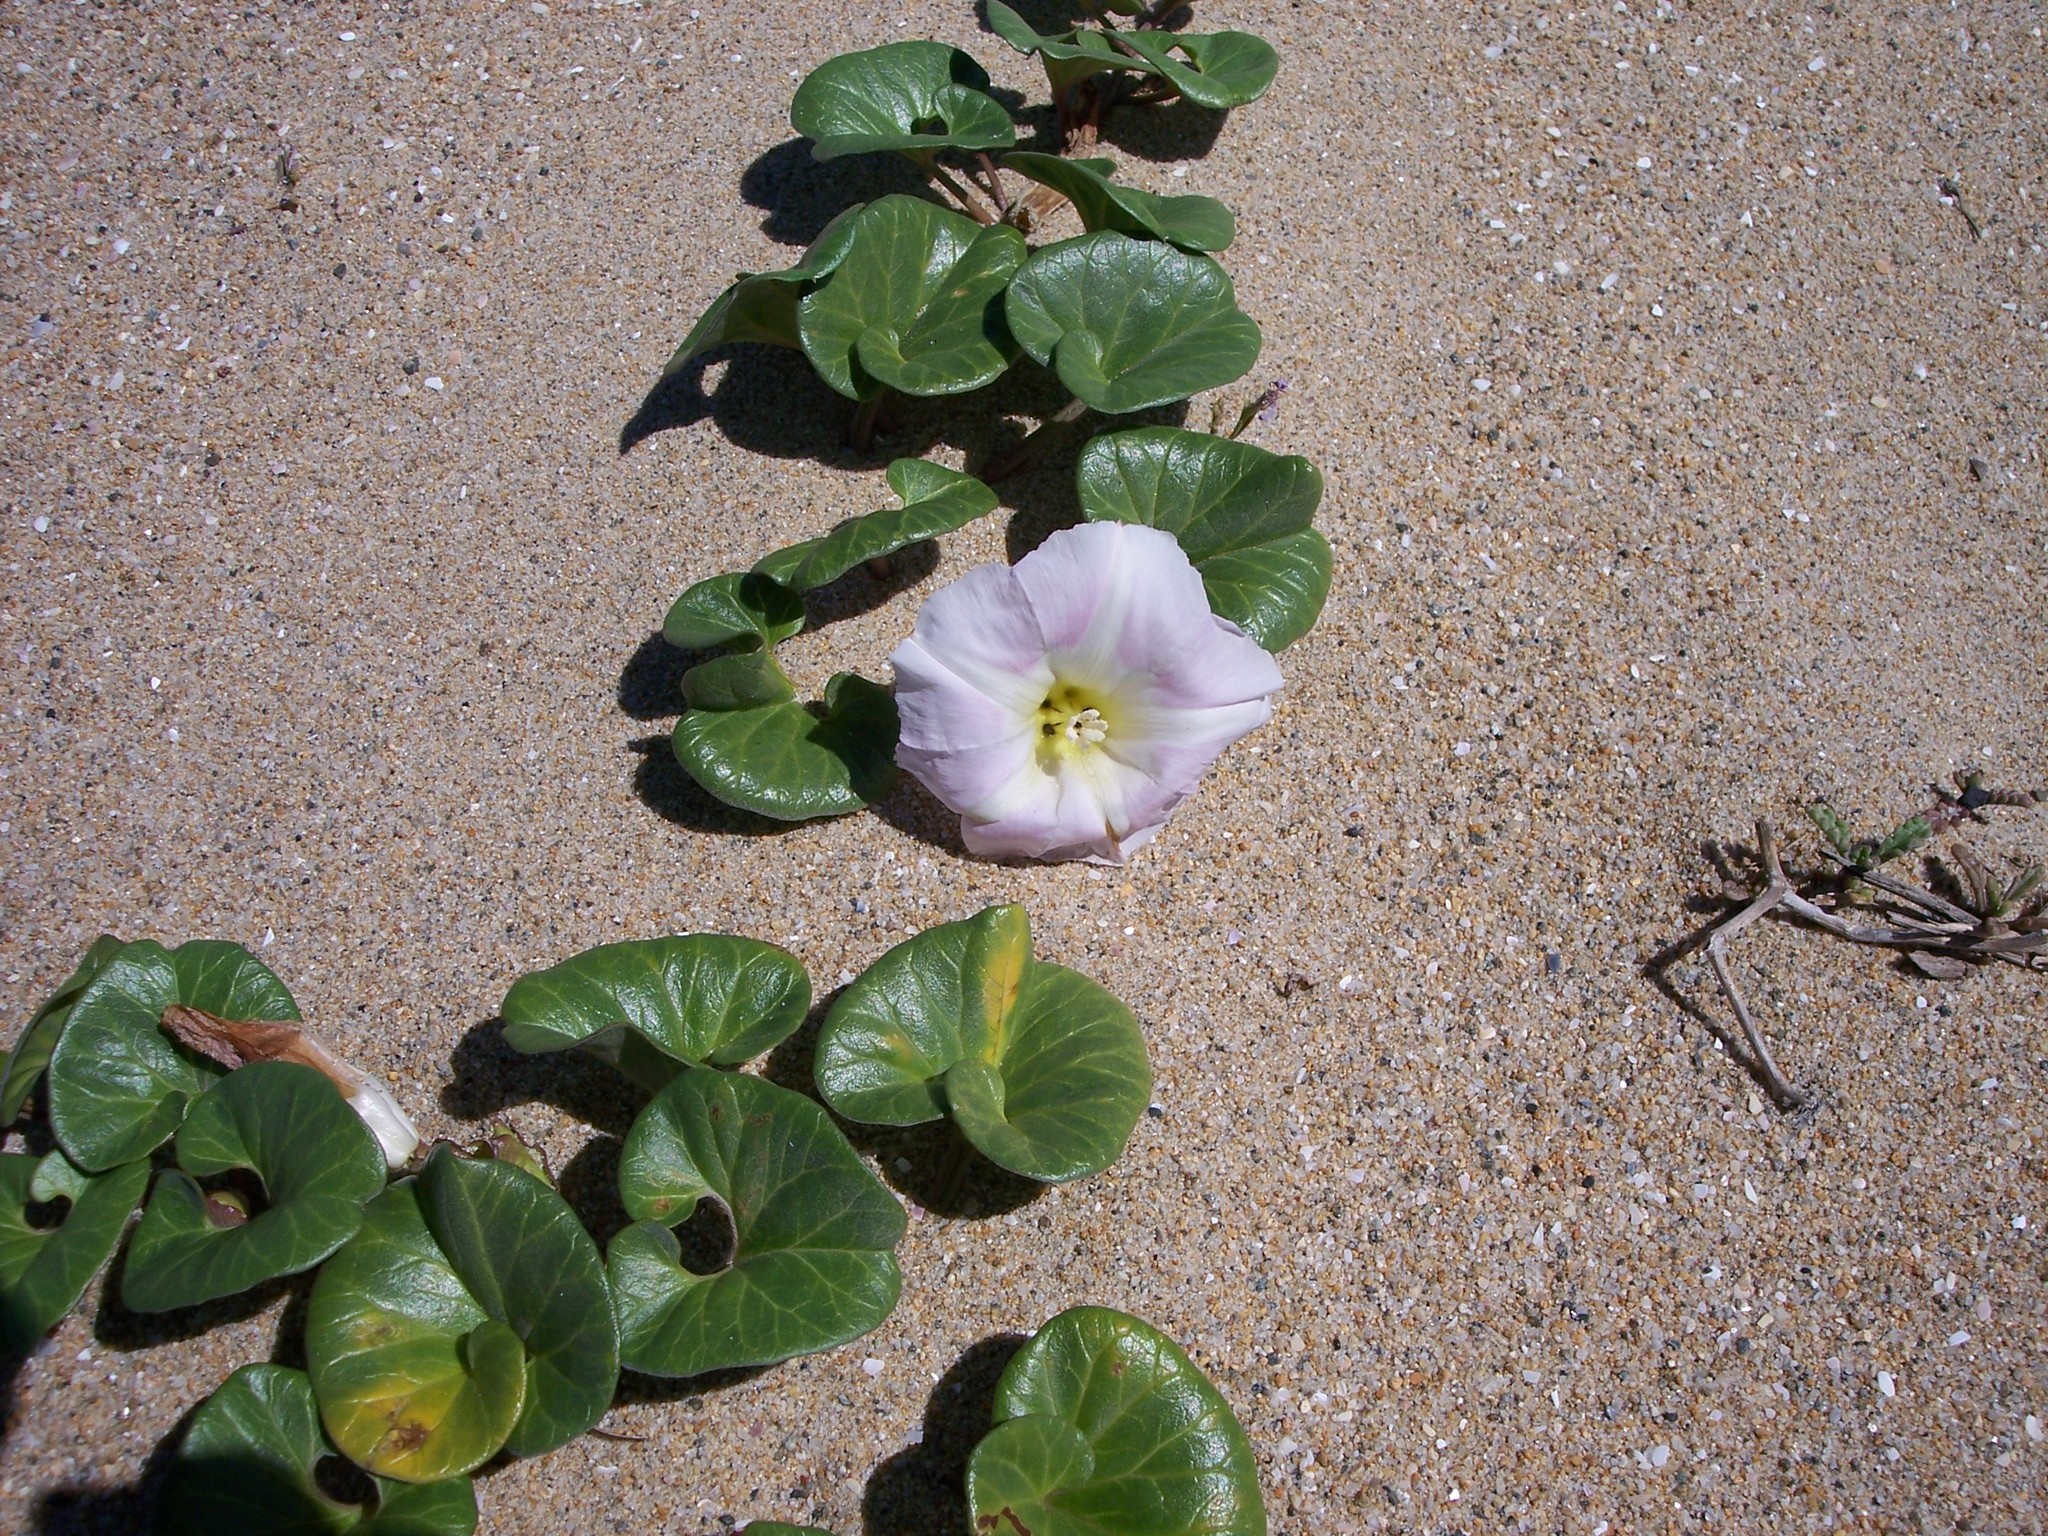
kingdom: Plantae
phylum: Tracheophyta
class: Magnoliopsida
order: Solanales
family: Convolvulaceae
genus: Calystegia
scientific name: Calystegia soldanella
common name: Sea bindweed
